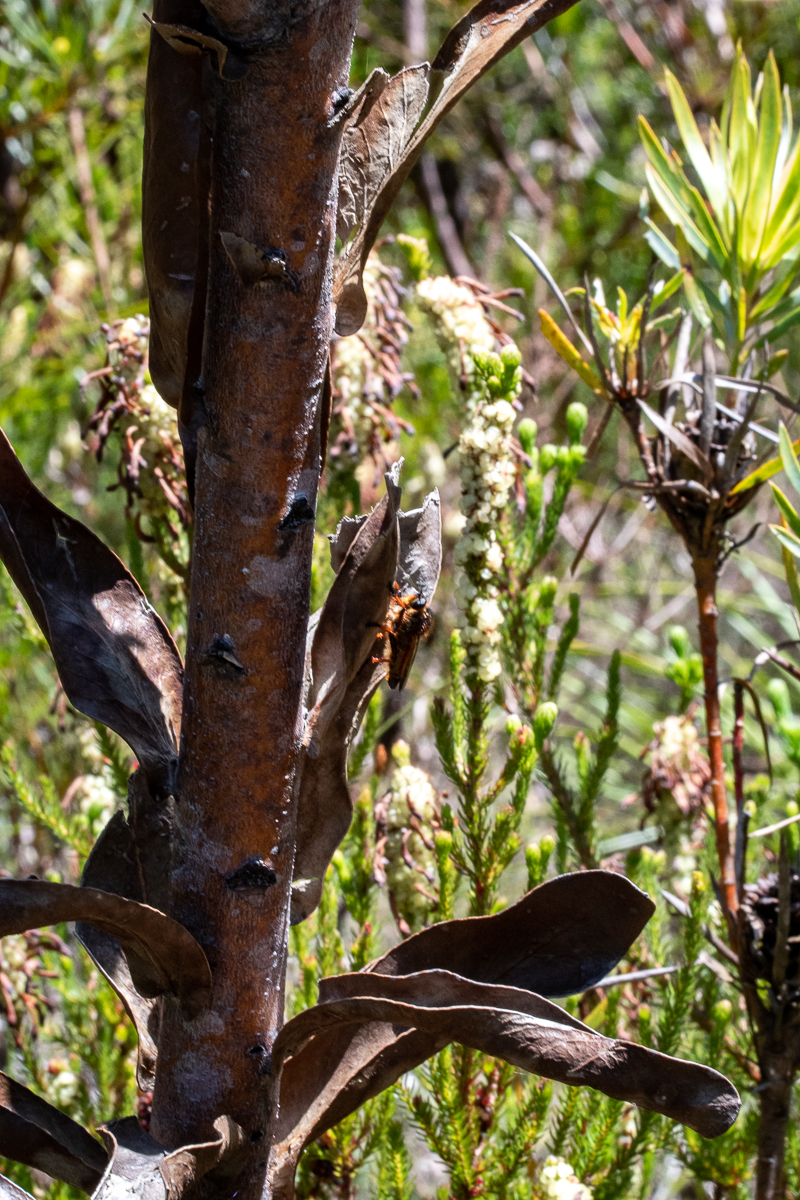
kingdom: Plantae
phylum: Tracheophyta
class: Magnoliopsida
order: Proteales
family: Proteaceae
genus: Protea
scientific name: Protea compacta
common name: Bot river protea
